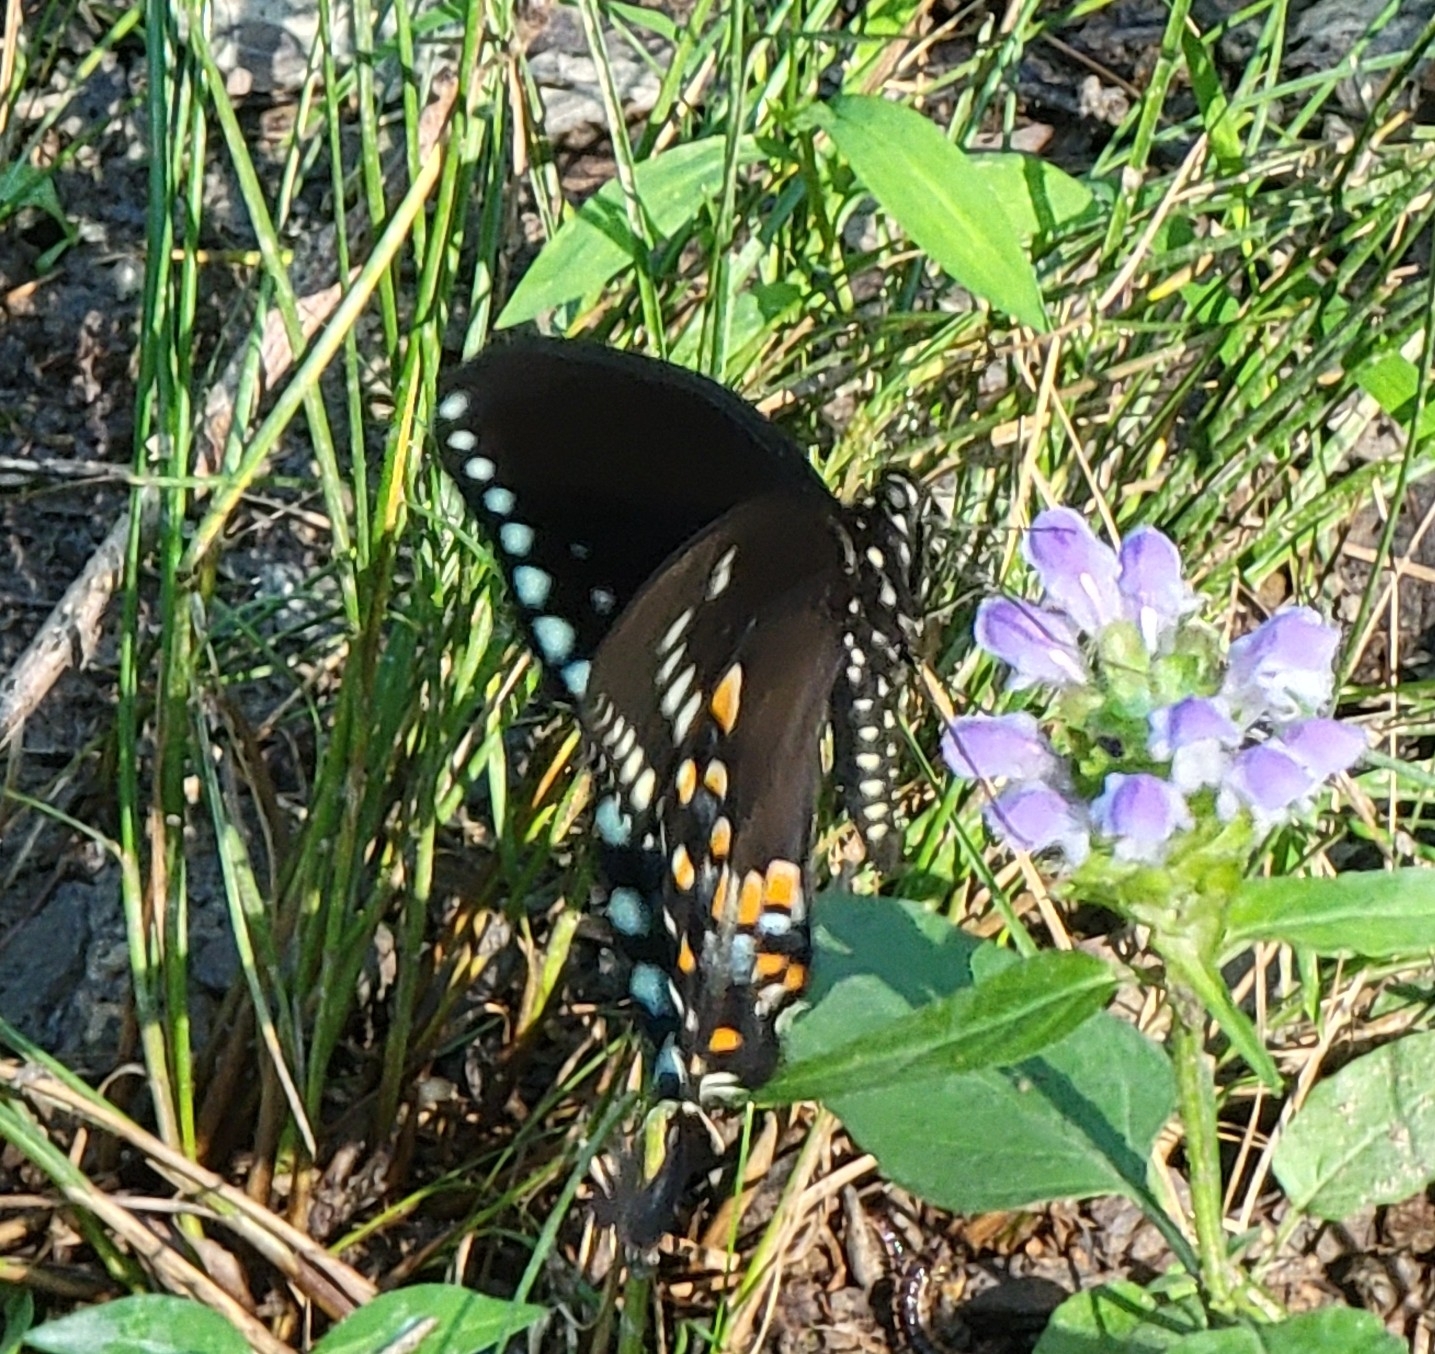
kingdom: Animalia
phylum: Arthropoda
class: Insecta
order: Lepidoptera
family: Papilionidae
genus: Papilio
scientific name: Papilio troilus
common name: Spicebush swallowtail
